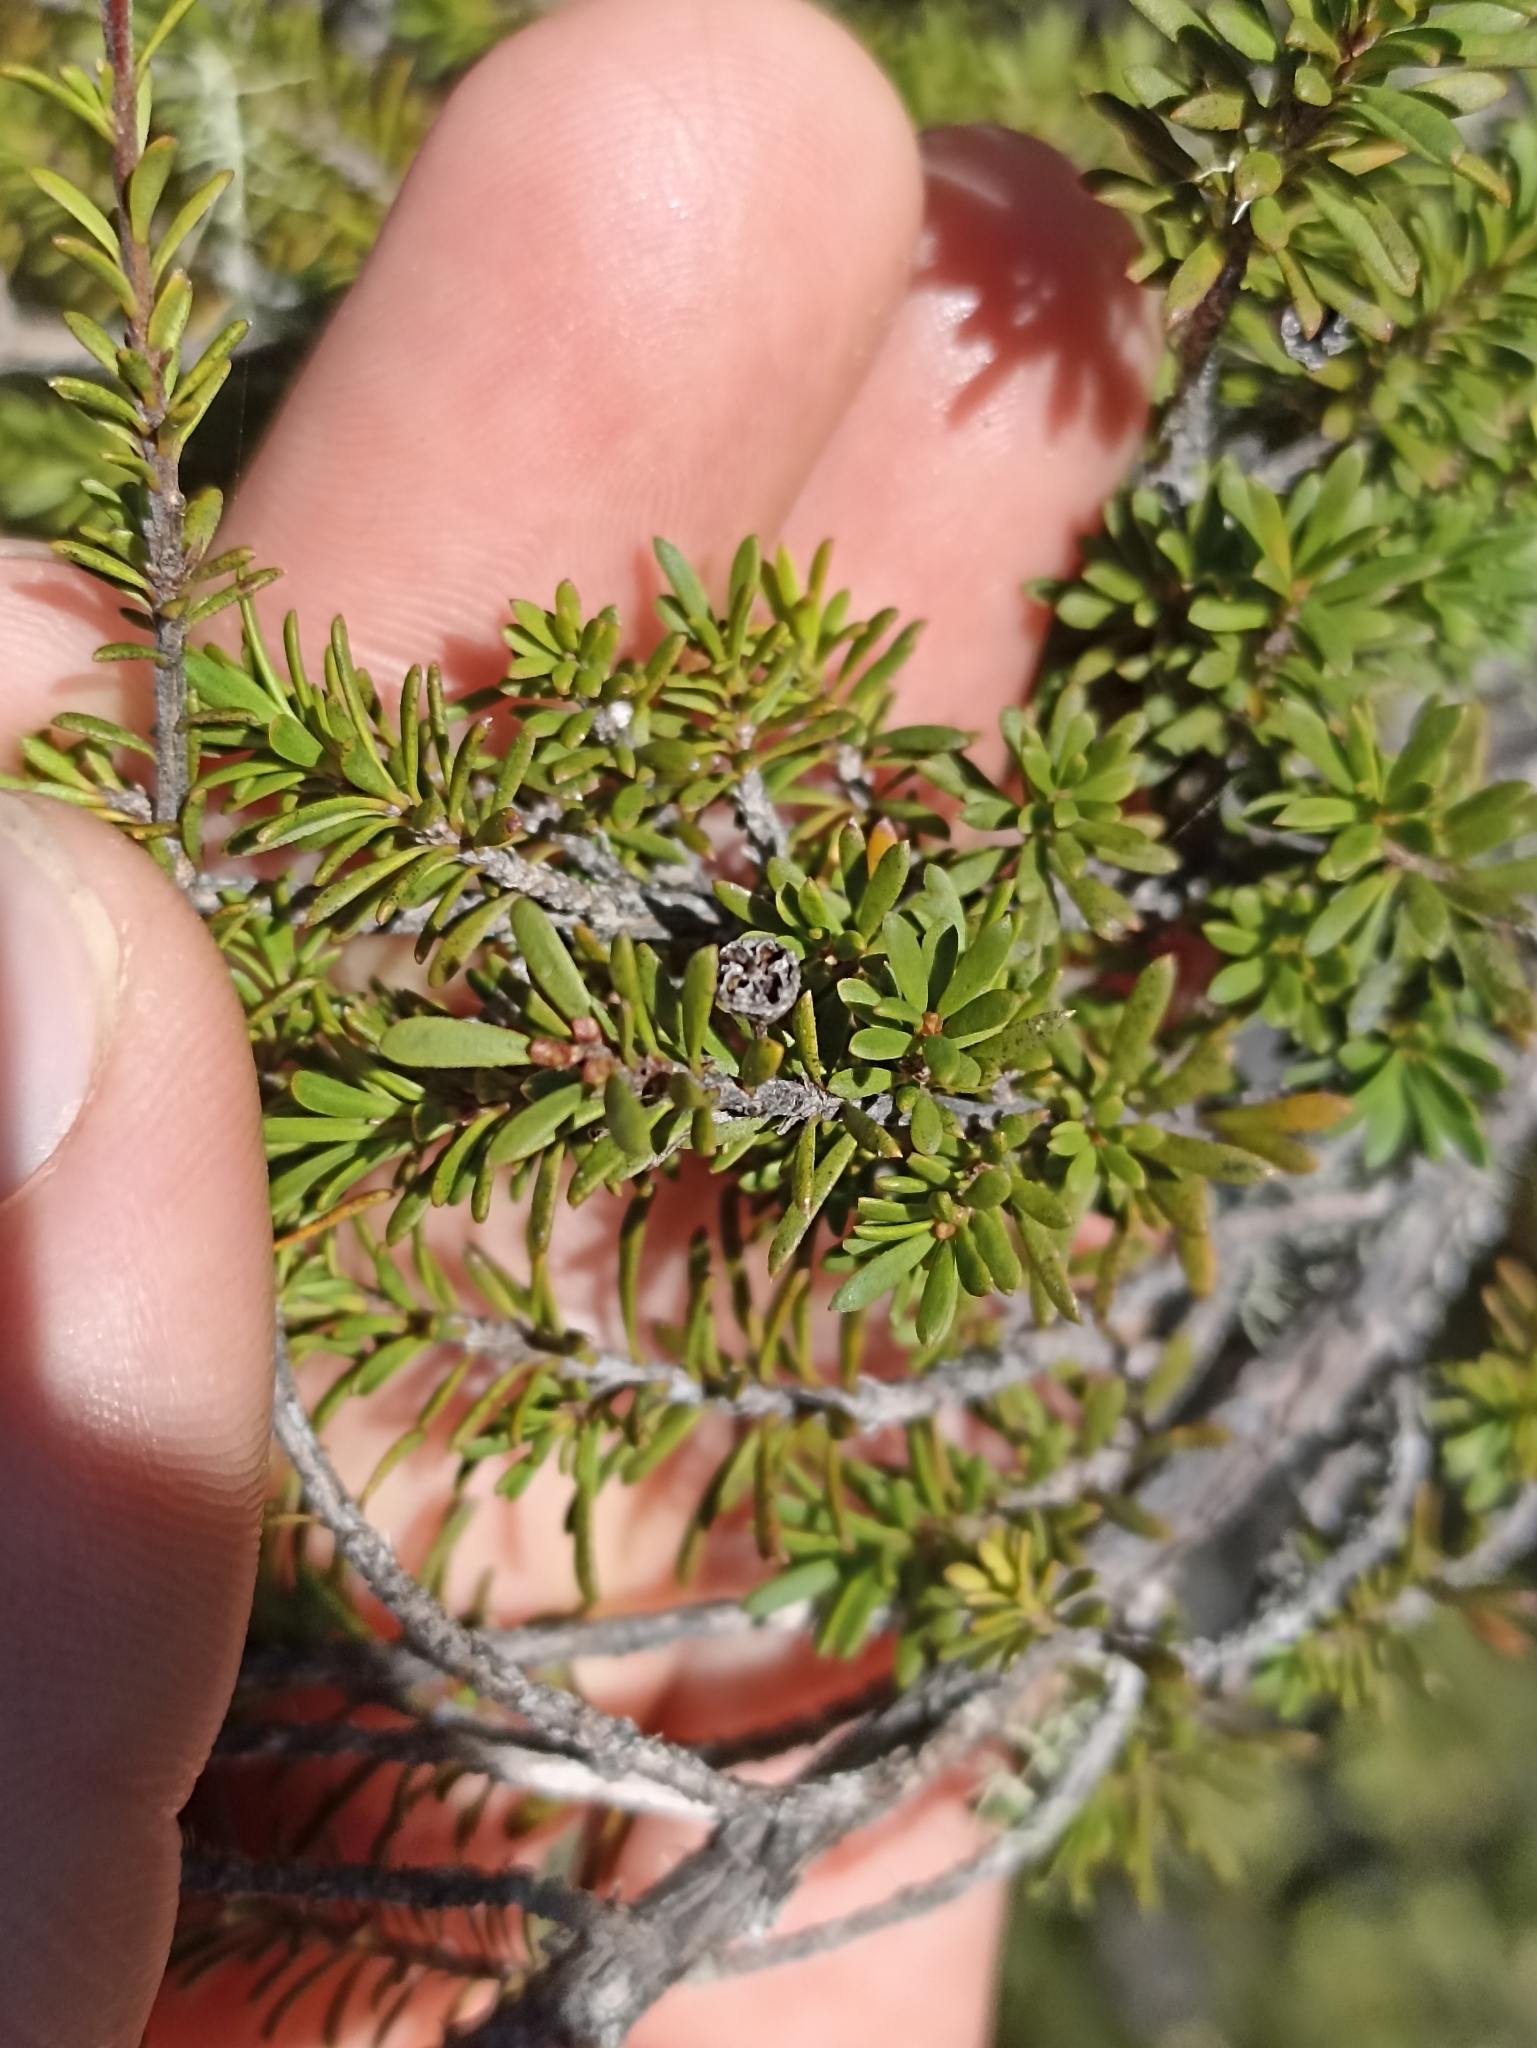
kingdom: Plantae
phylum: Tracheophyta
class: Magnoliopsida
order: Myrtales
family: Myrtaceae
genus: Kunzea
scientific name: Kunzea serotina
